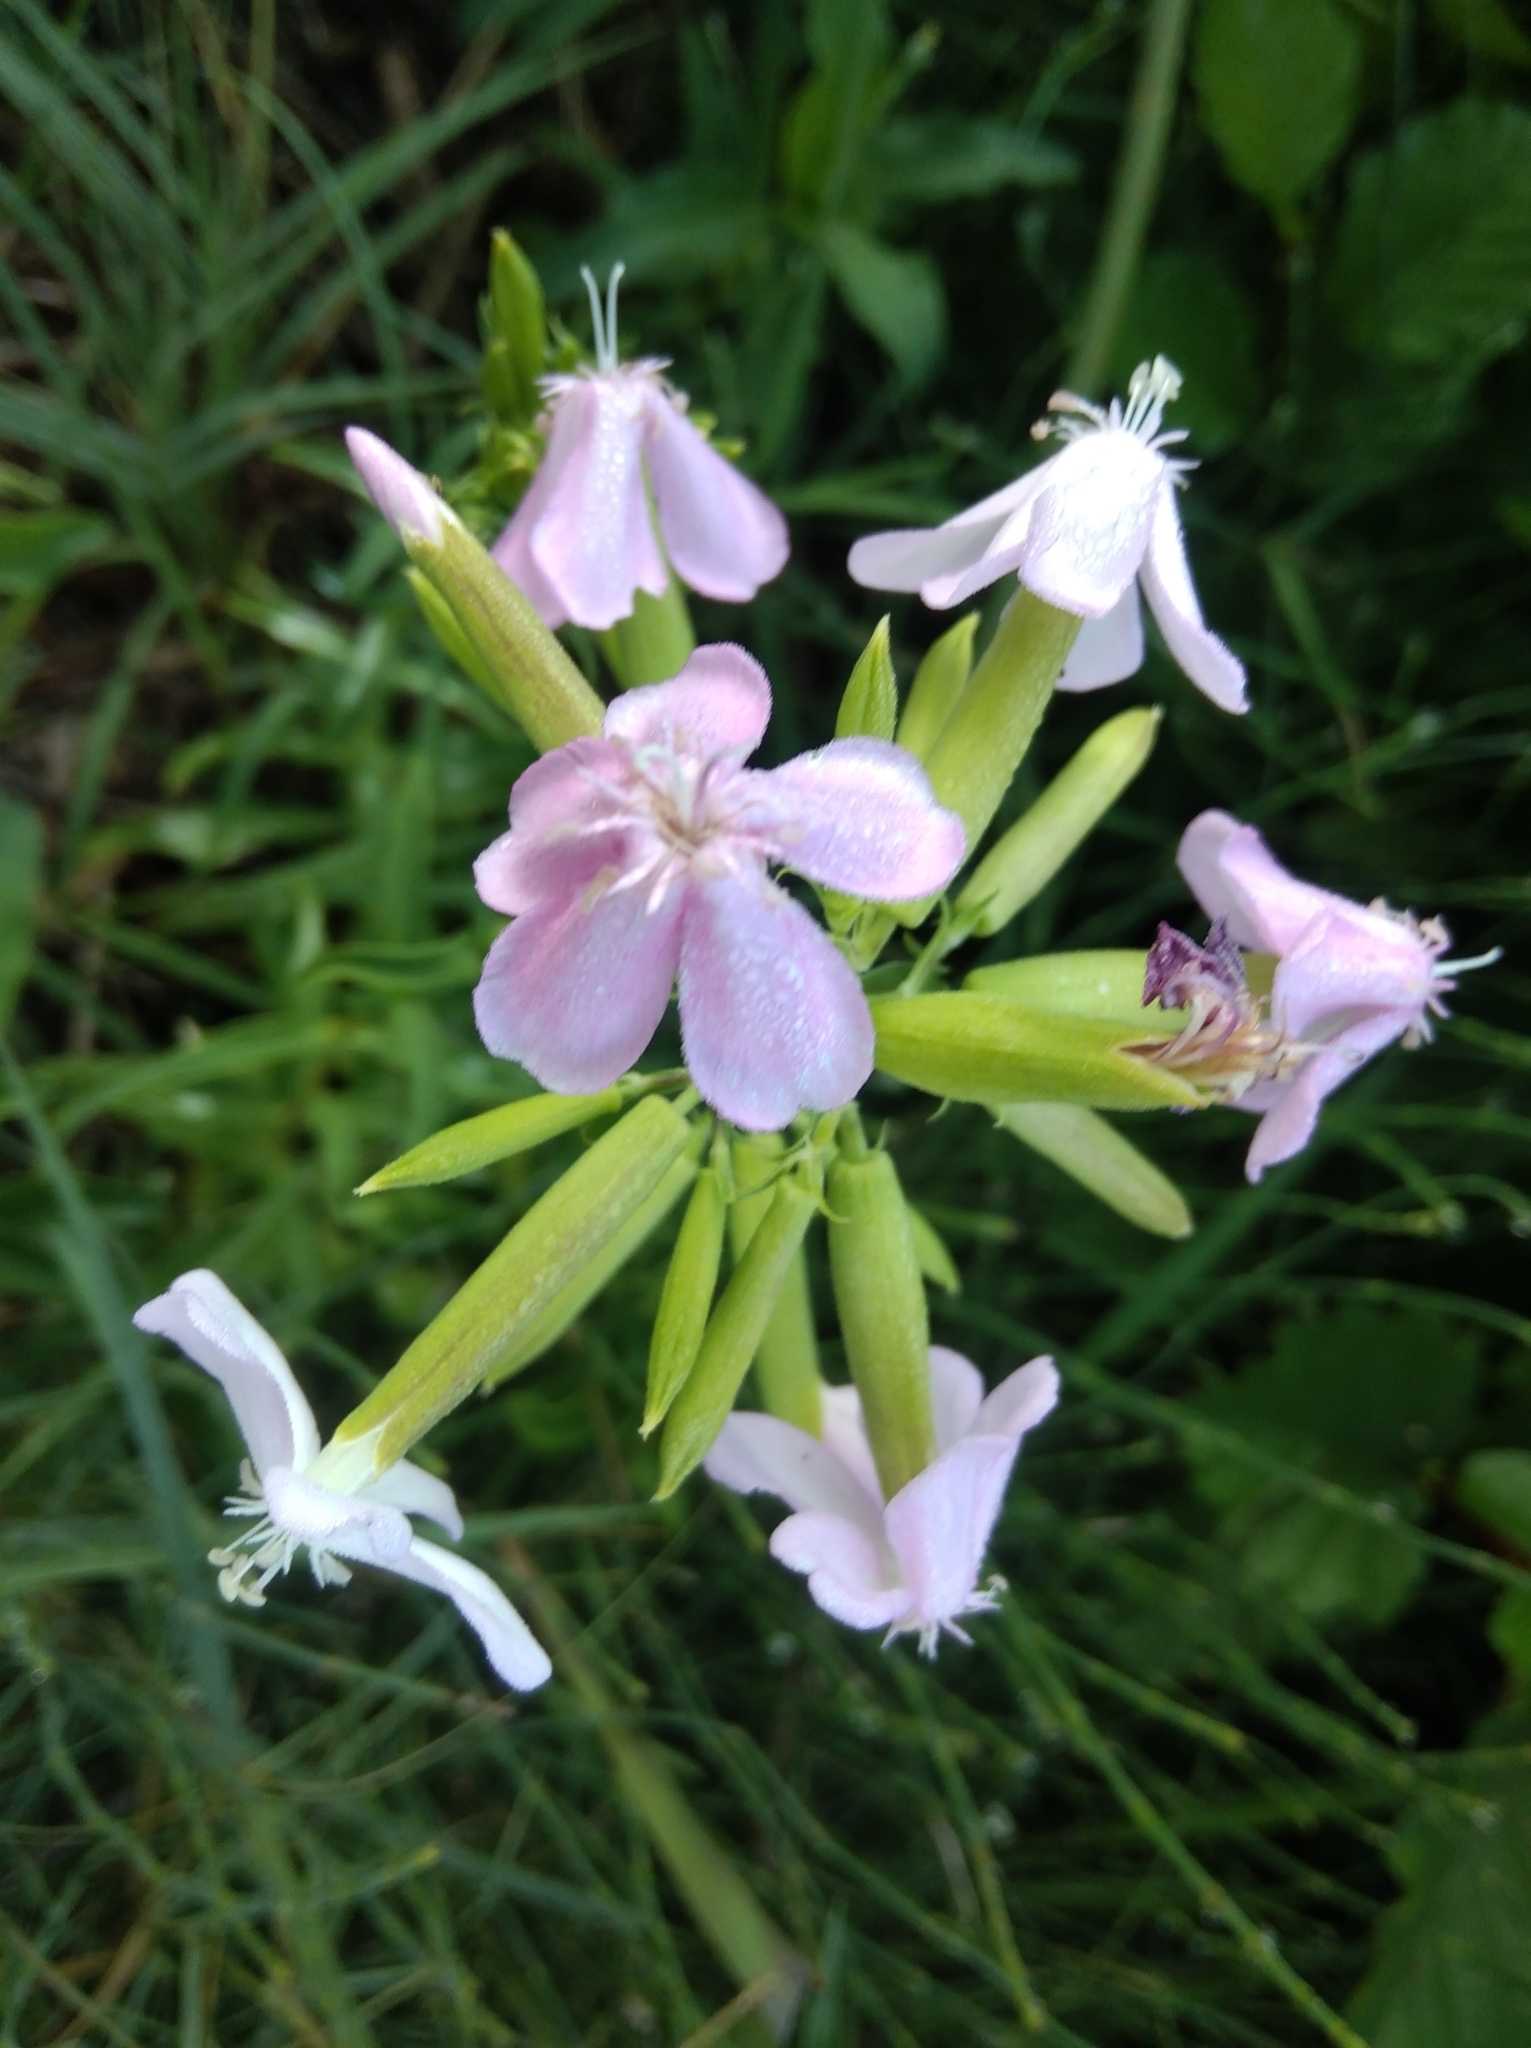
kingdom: Plantae
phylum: Tracheophyta
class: Magnoliopsida
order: Caryophyllales
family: Caryophyllaceae
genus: Saponaria
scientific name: Saponaria officinalis
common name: Soapwort
